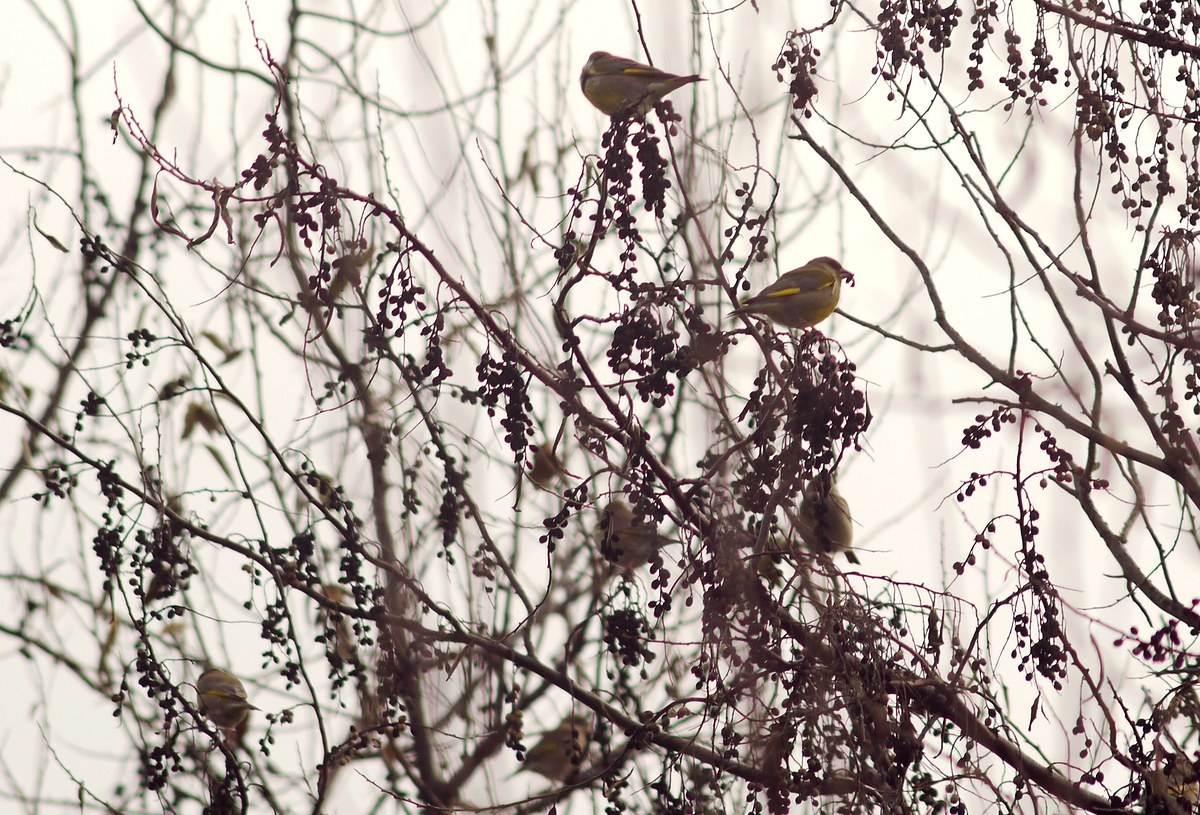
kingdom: Plantae
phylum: Tracheophyta
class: Liliopsida
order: Poales
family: Poaceae
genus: Chloris
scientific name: Chloris chloris
